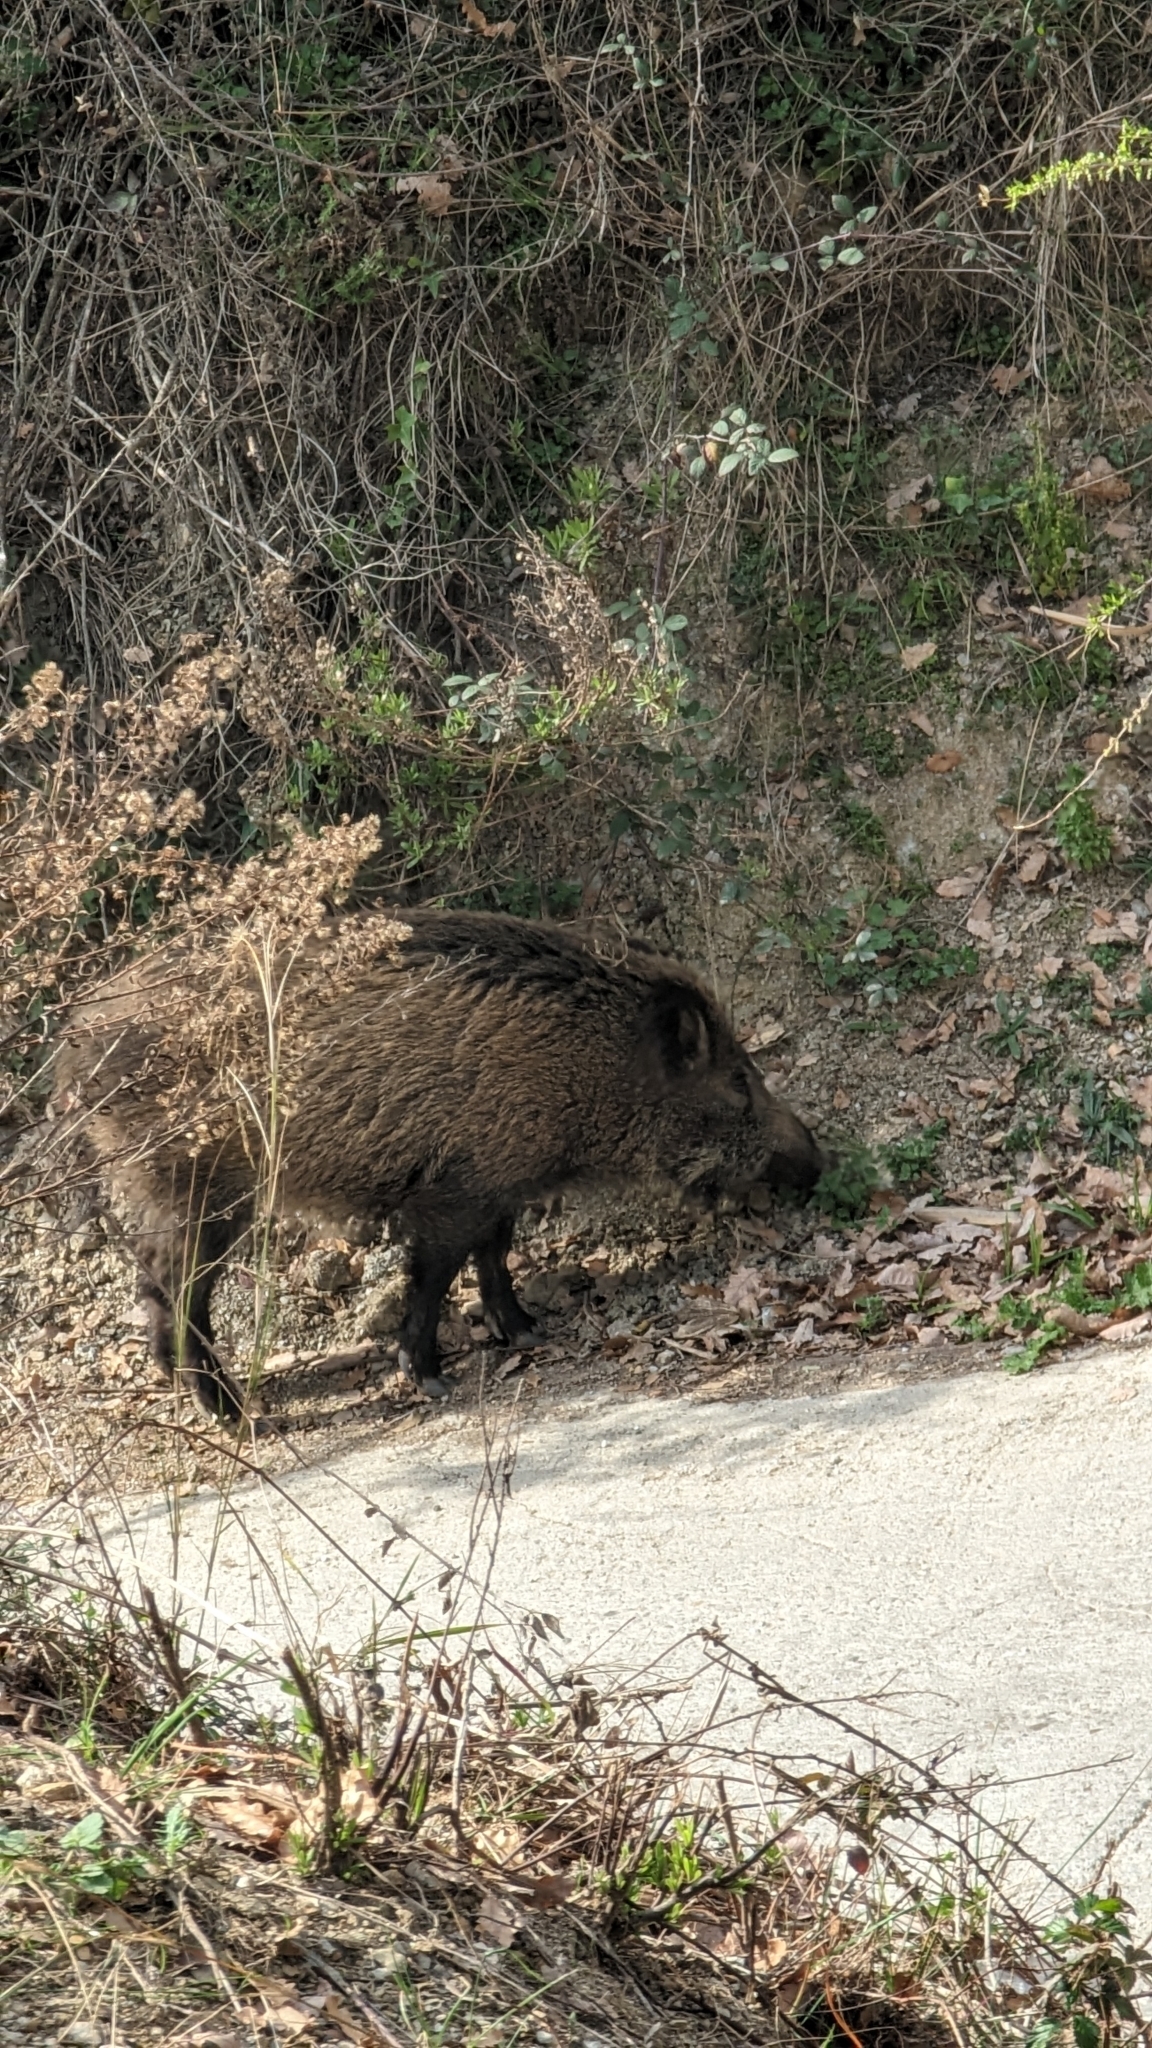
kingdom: Animalia
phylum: Chordata
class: Mammalia
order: Artiodactyla
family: Suidae
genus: Sus
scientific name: Sus scrofa
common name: Wild boar
